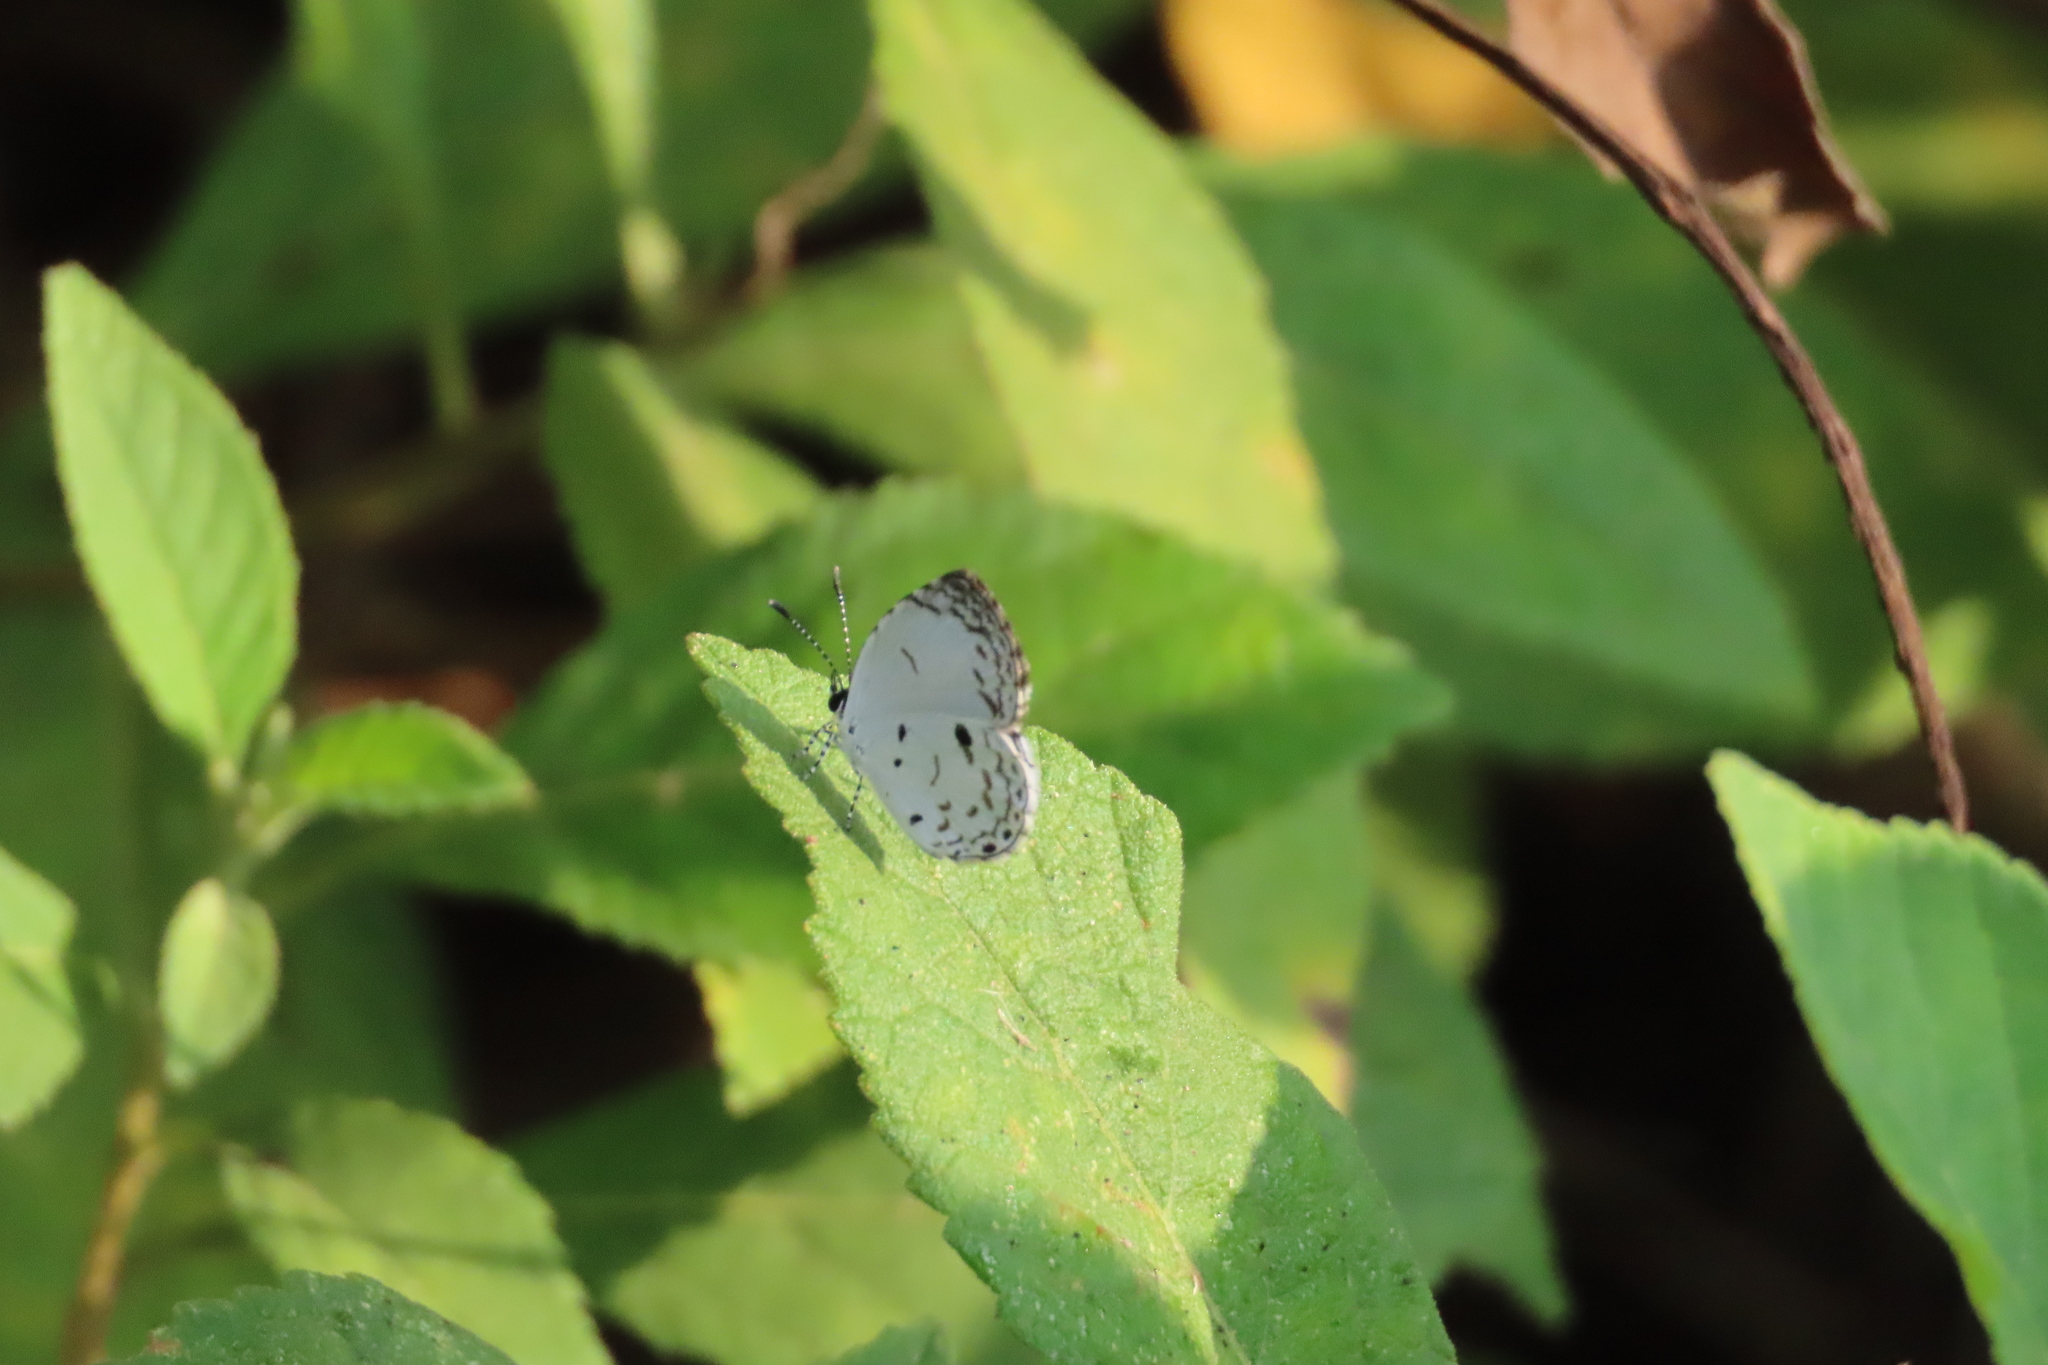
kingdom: Animalia
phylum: Arthropoda
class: Insecta
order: Lepidoptera
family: Lycaenidae
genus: Neopithecops
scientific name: Neopithecops zalmora
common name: Quaker
